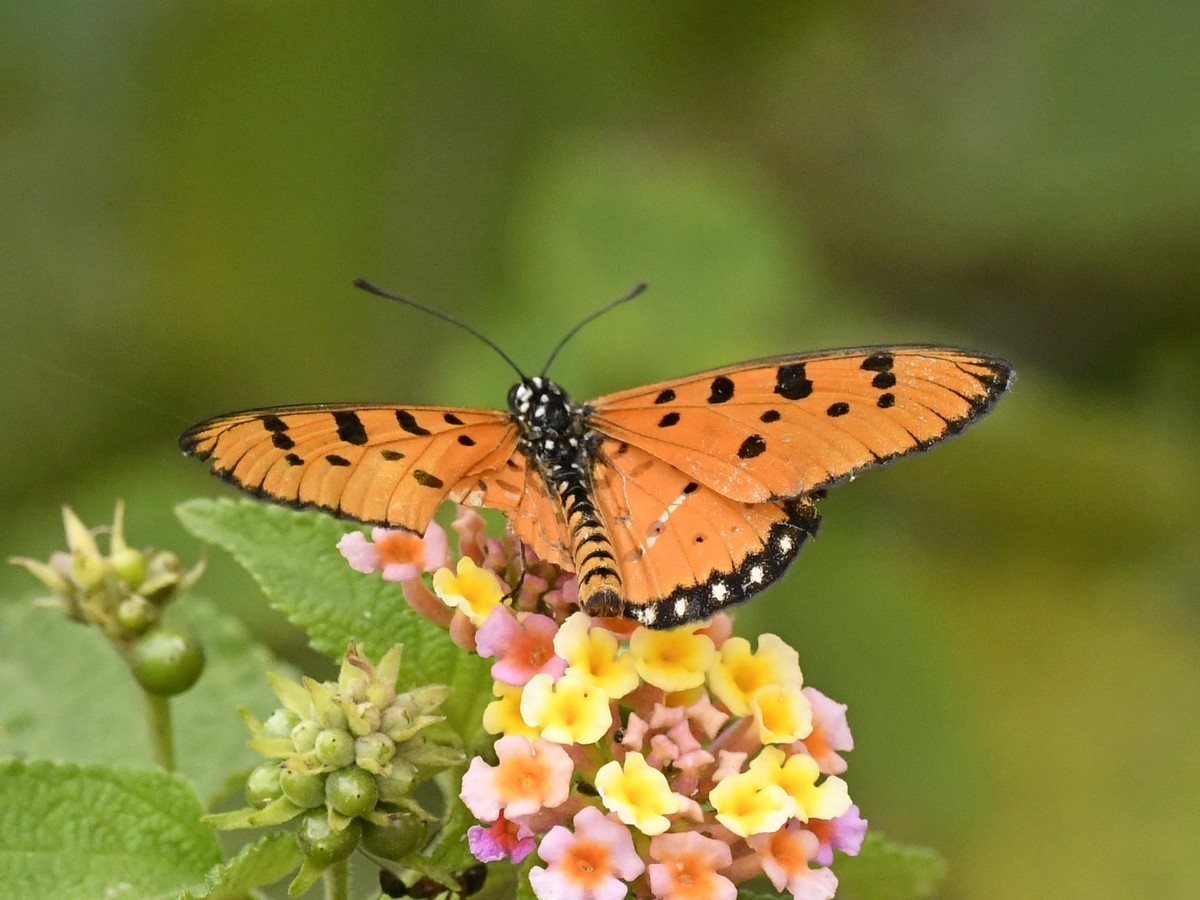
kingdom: Animalia
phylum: Arthropoda
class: Insecta
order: Lepidoptera
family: Nymphalidae
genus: Acraea
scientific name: Acraea terpsicore
